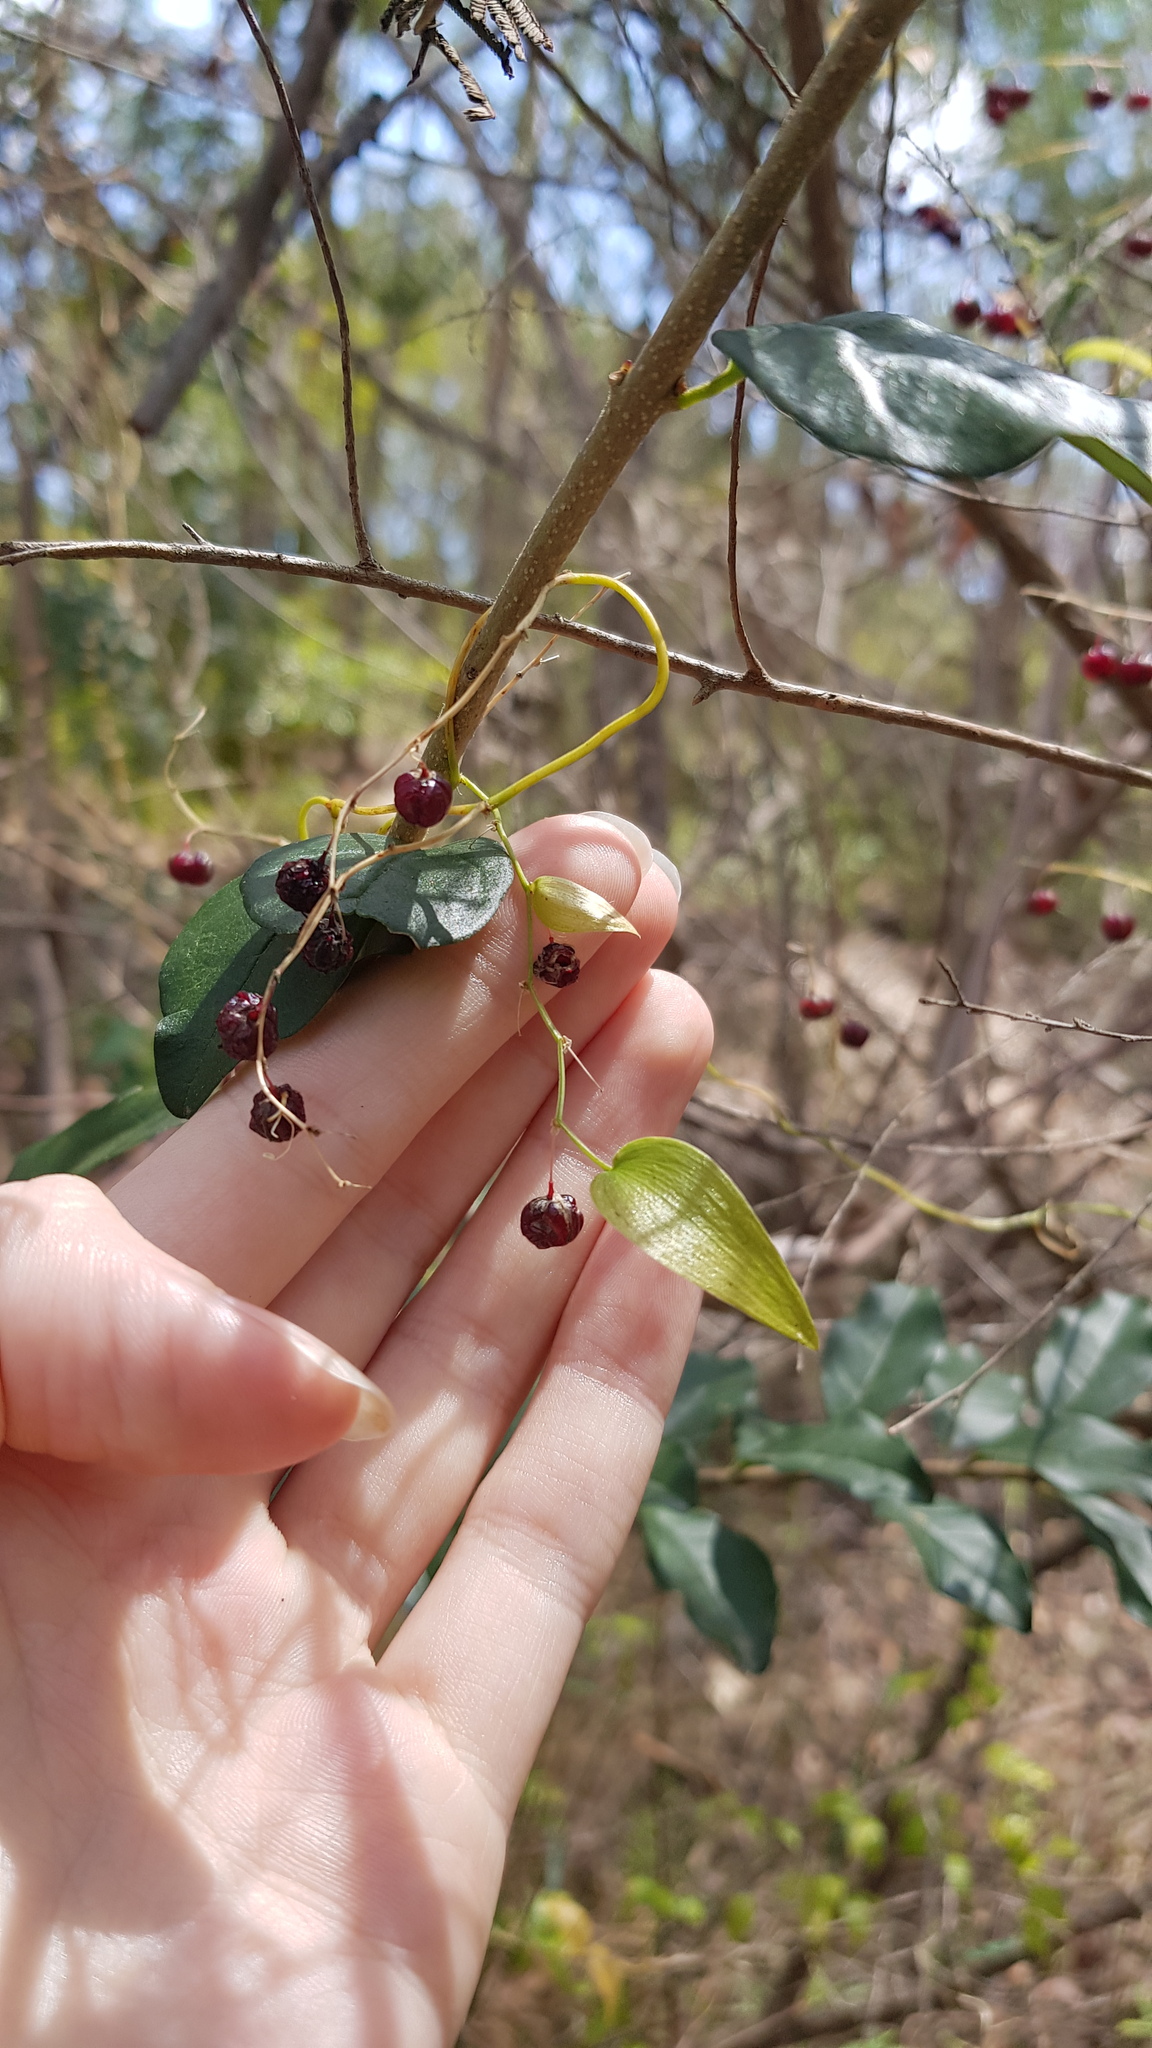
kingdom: Plantae
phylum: Tracheophyta
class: Liliopsida
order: Asparagales
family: Asparagaceae
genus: Asparagus
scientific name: Asparagus asparagoides
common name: African asparagus fern
